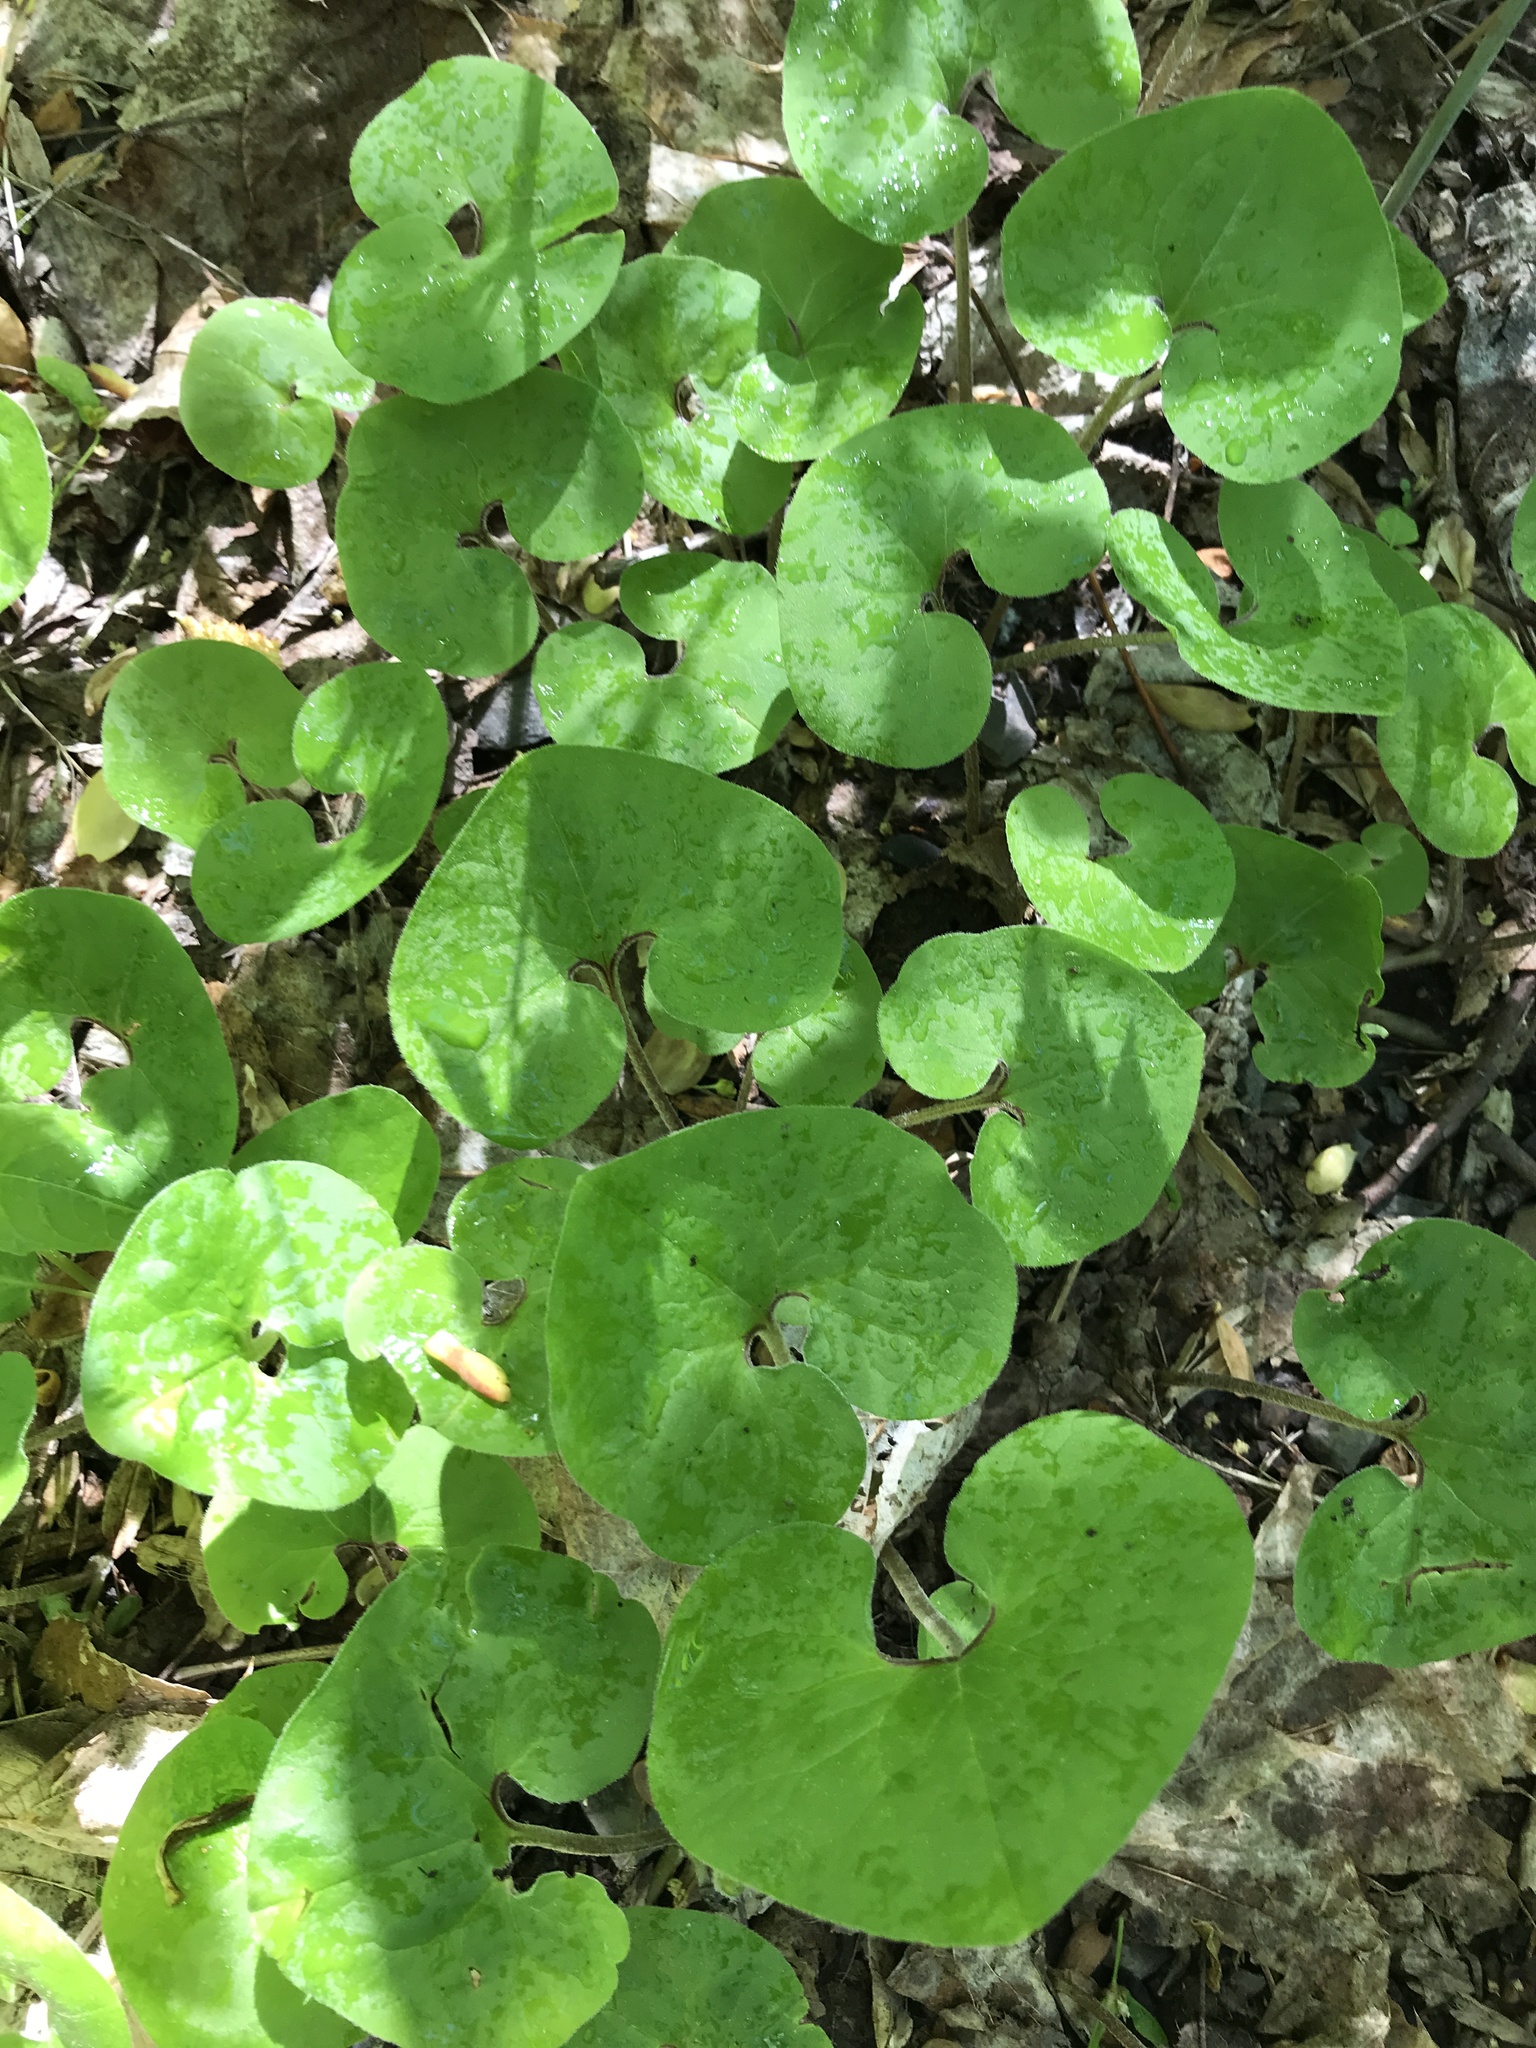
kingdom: Plantae
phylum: Tracheophyta
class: Magnoliopsida
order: Piperales
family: Aristolochiaceae
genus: Asarum
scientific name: Asarum canadense
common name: Wild ginger
